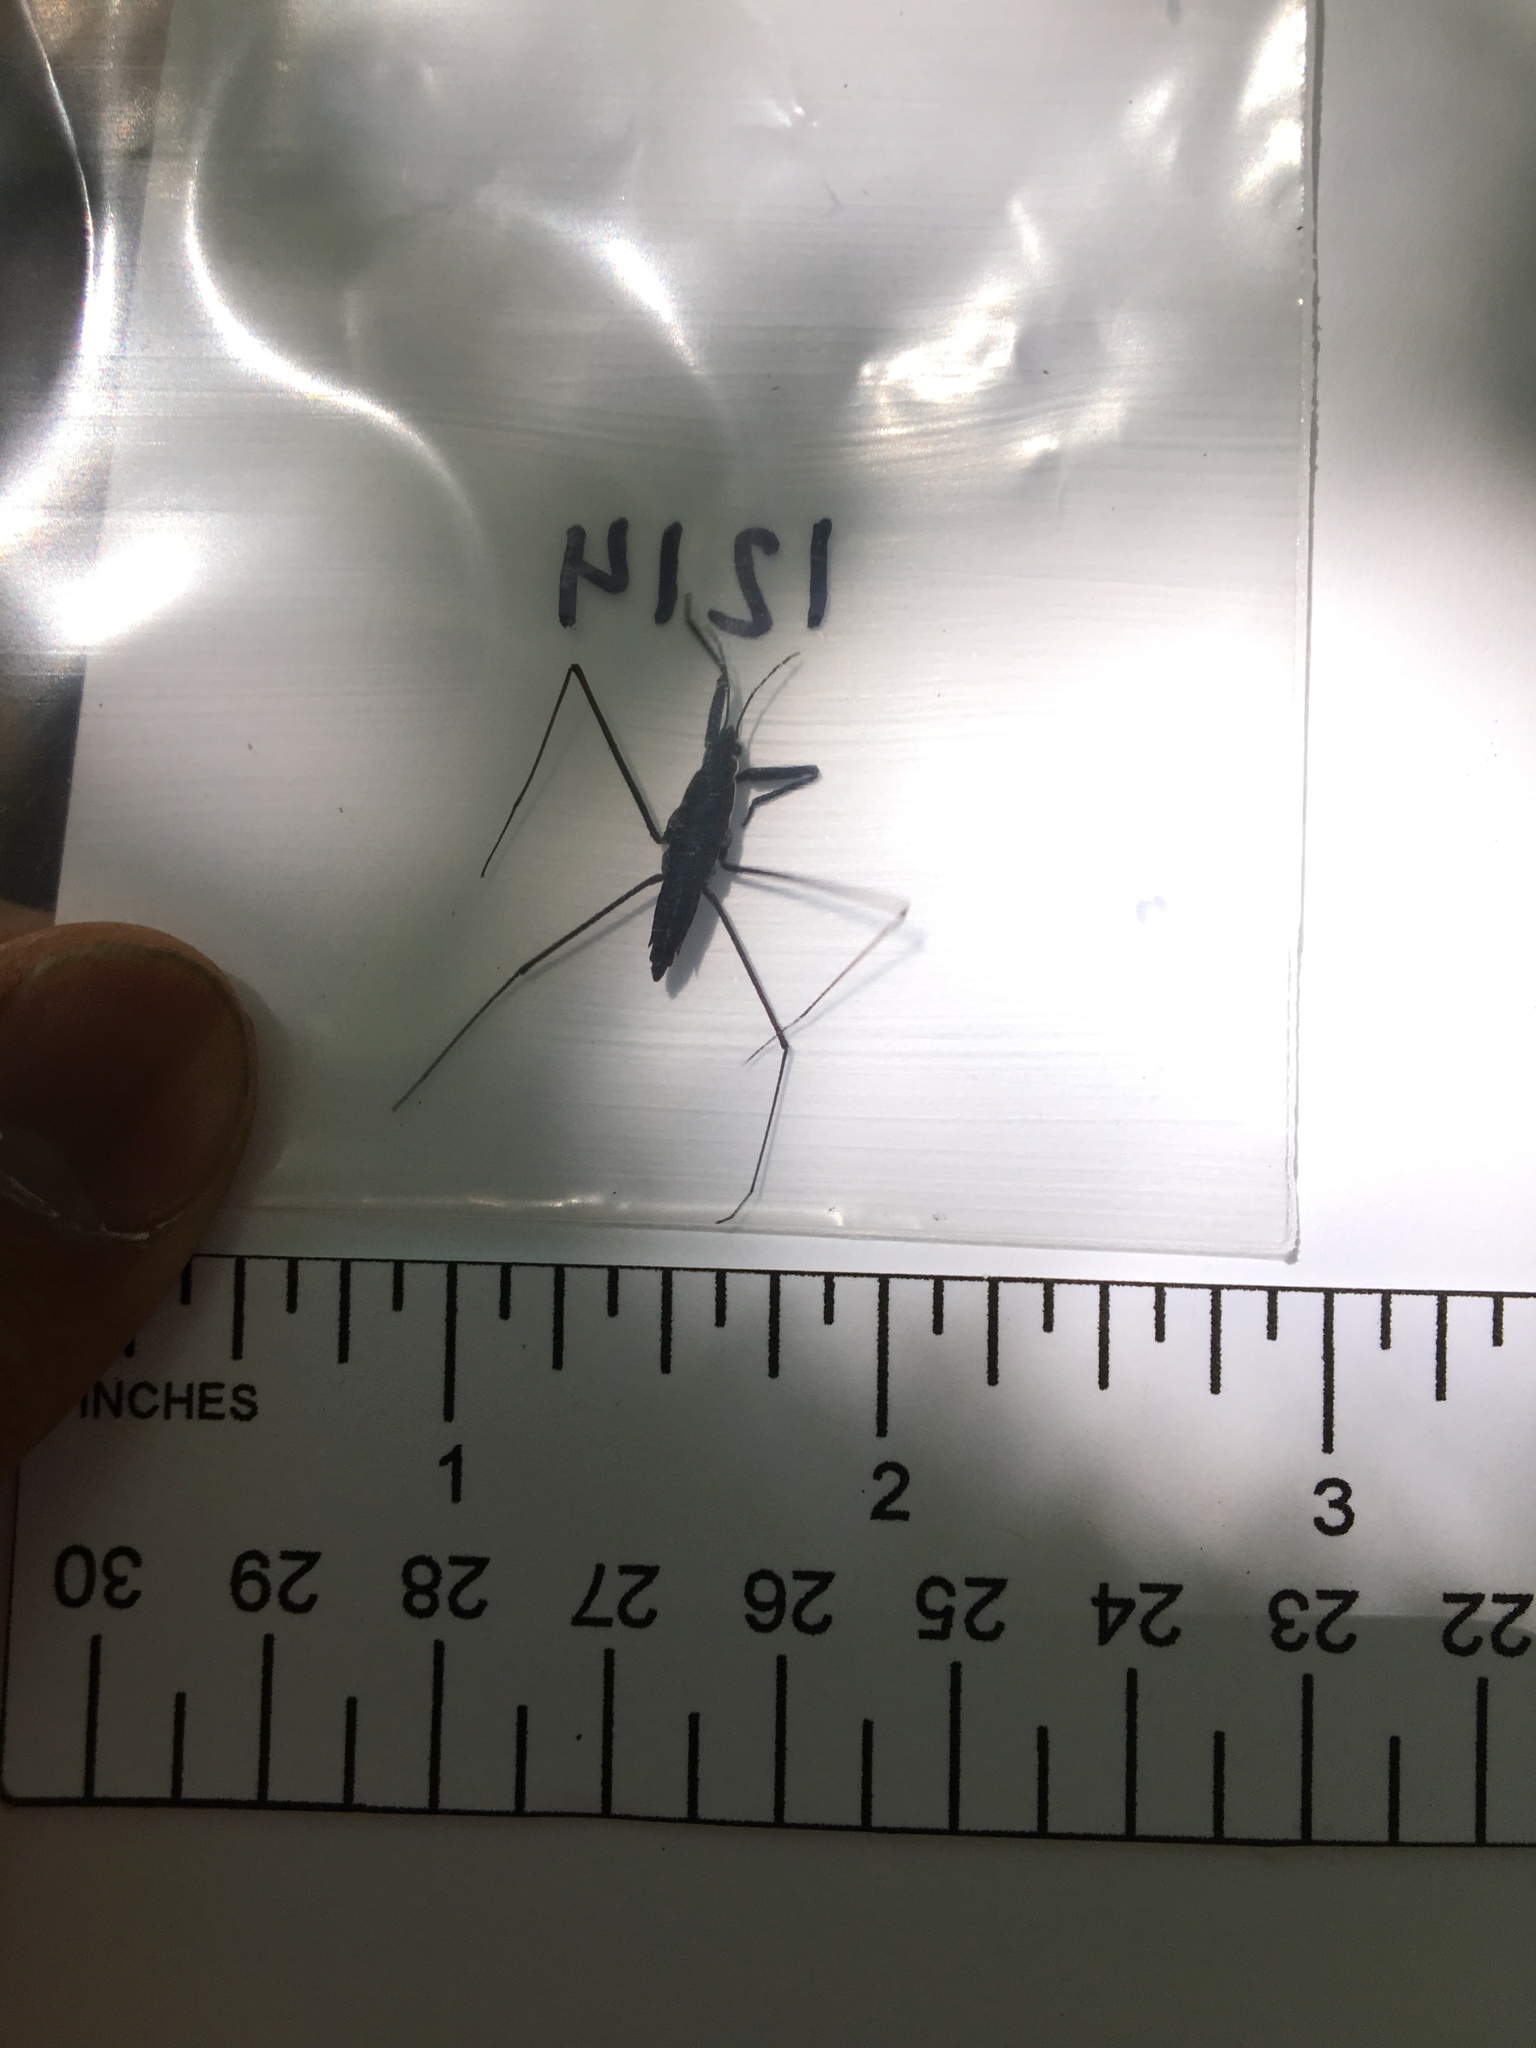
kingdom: Animalia
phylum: Arthropoda
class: Insecta
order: Hemiptera
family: Gerridae
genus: Aquarius
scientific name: Aquarius remigis
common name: Common water strider
